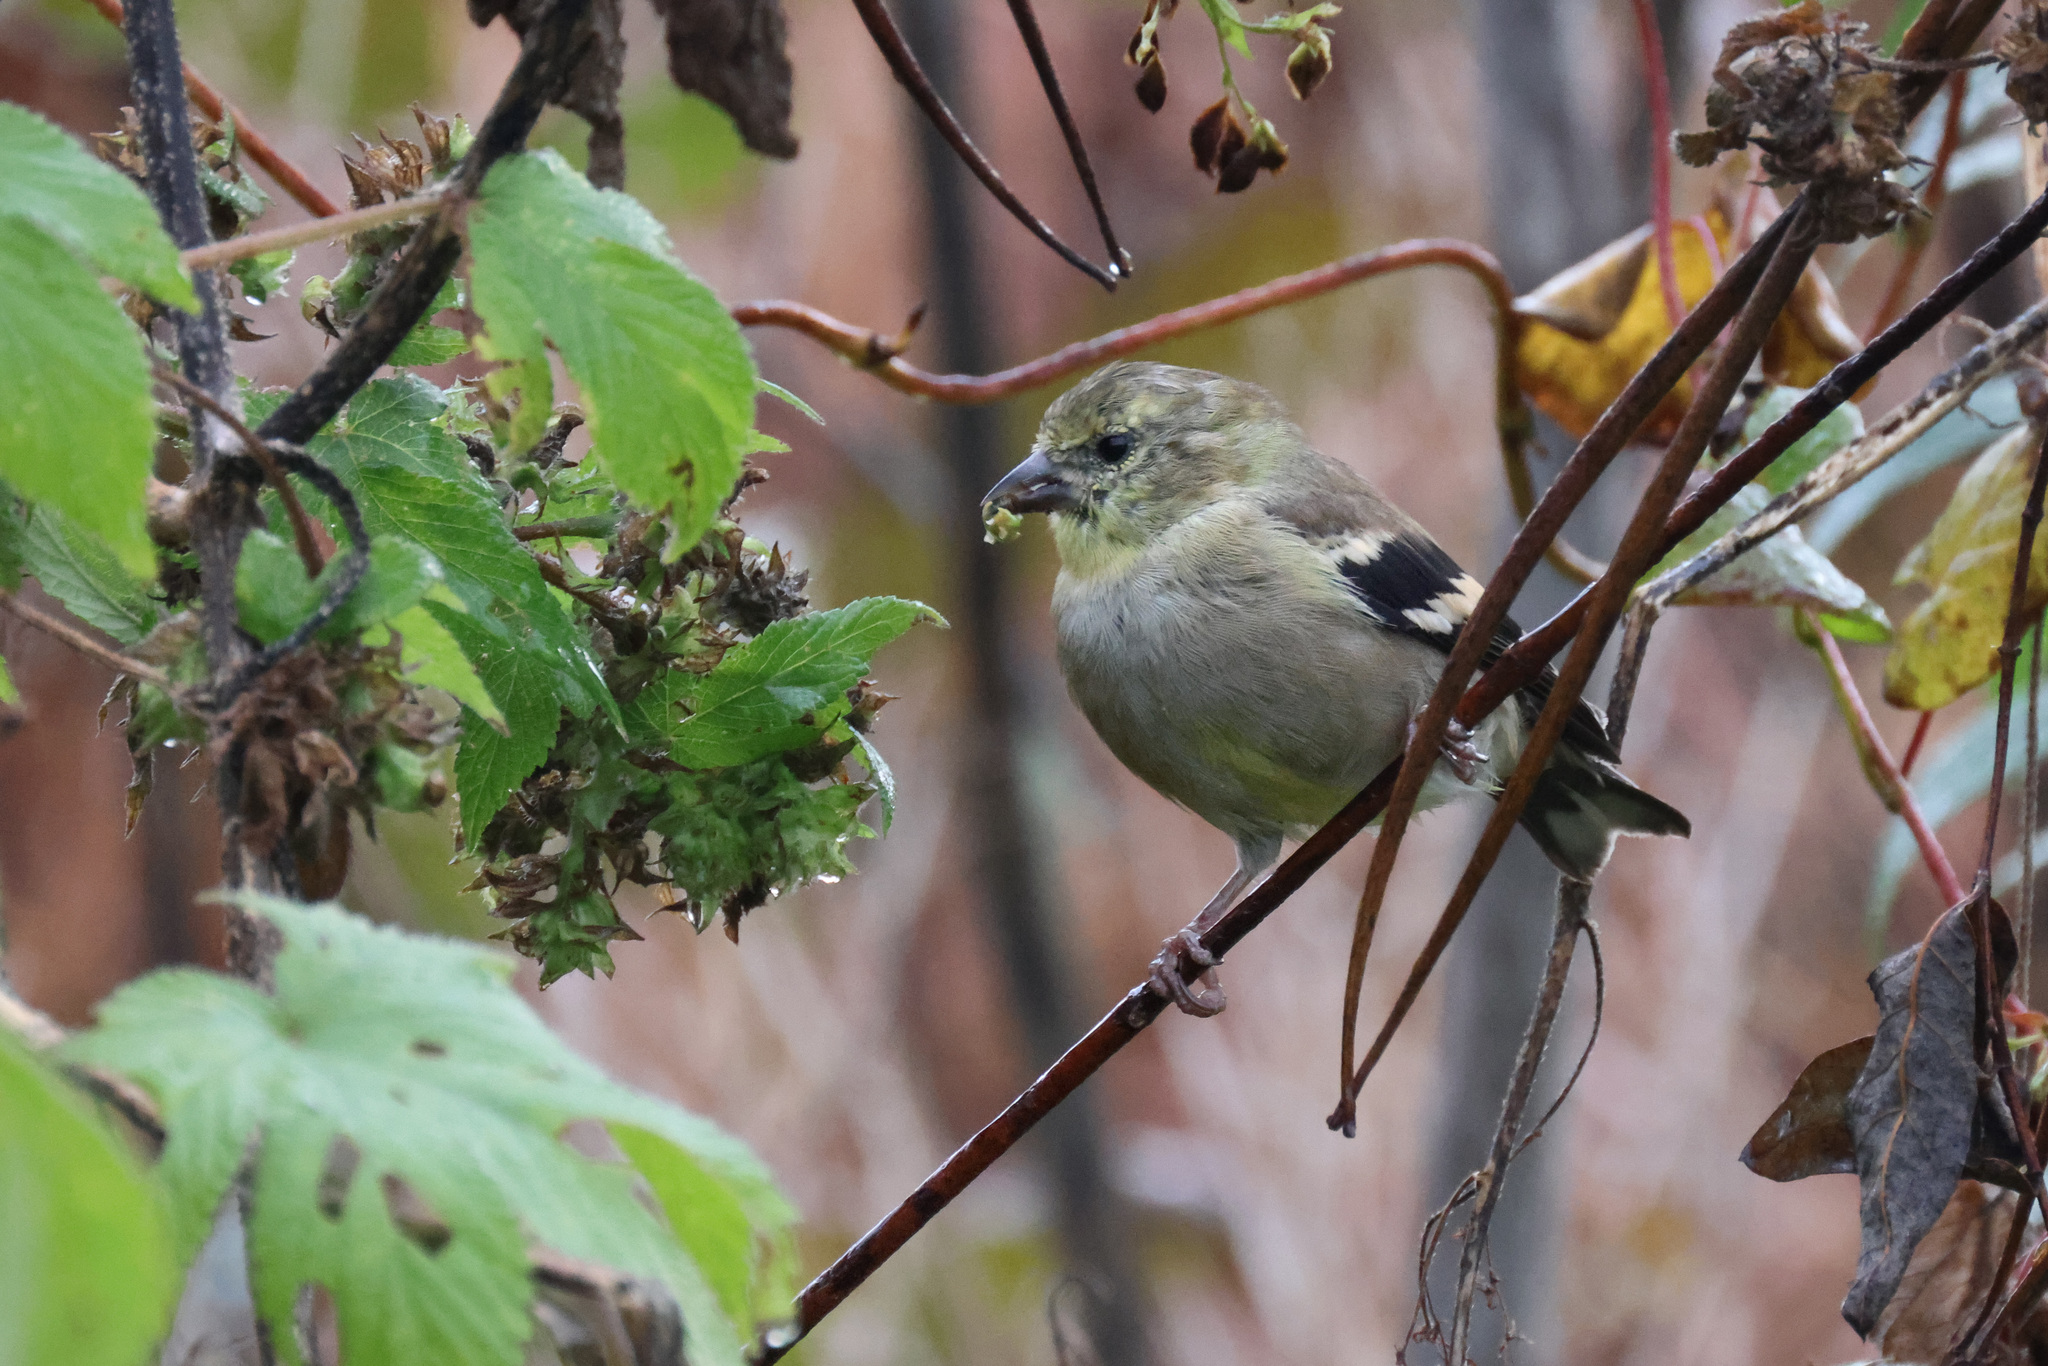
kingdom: Animalia
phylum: Chordata
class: Aves
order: Passeriformes
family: Fringillidae
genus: Spinus
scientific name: Spinus tristis
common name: American goldfinch
